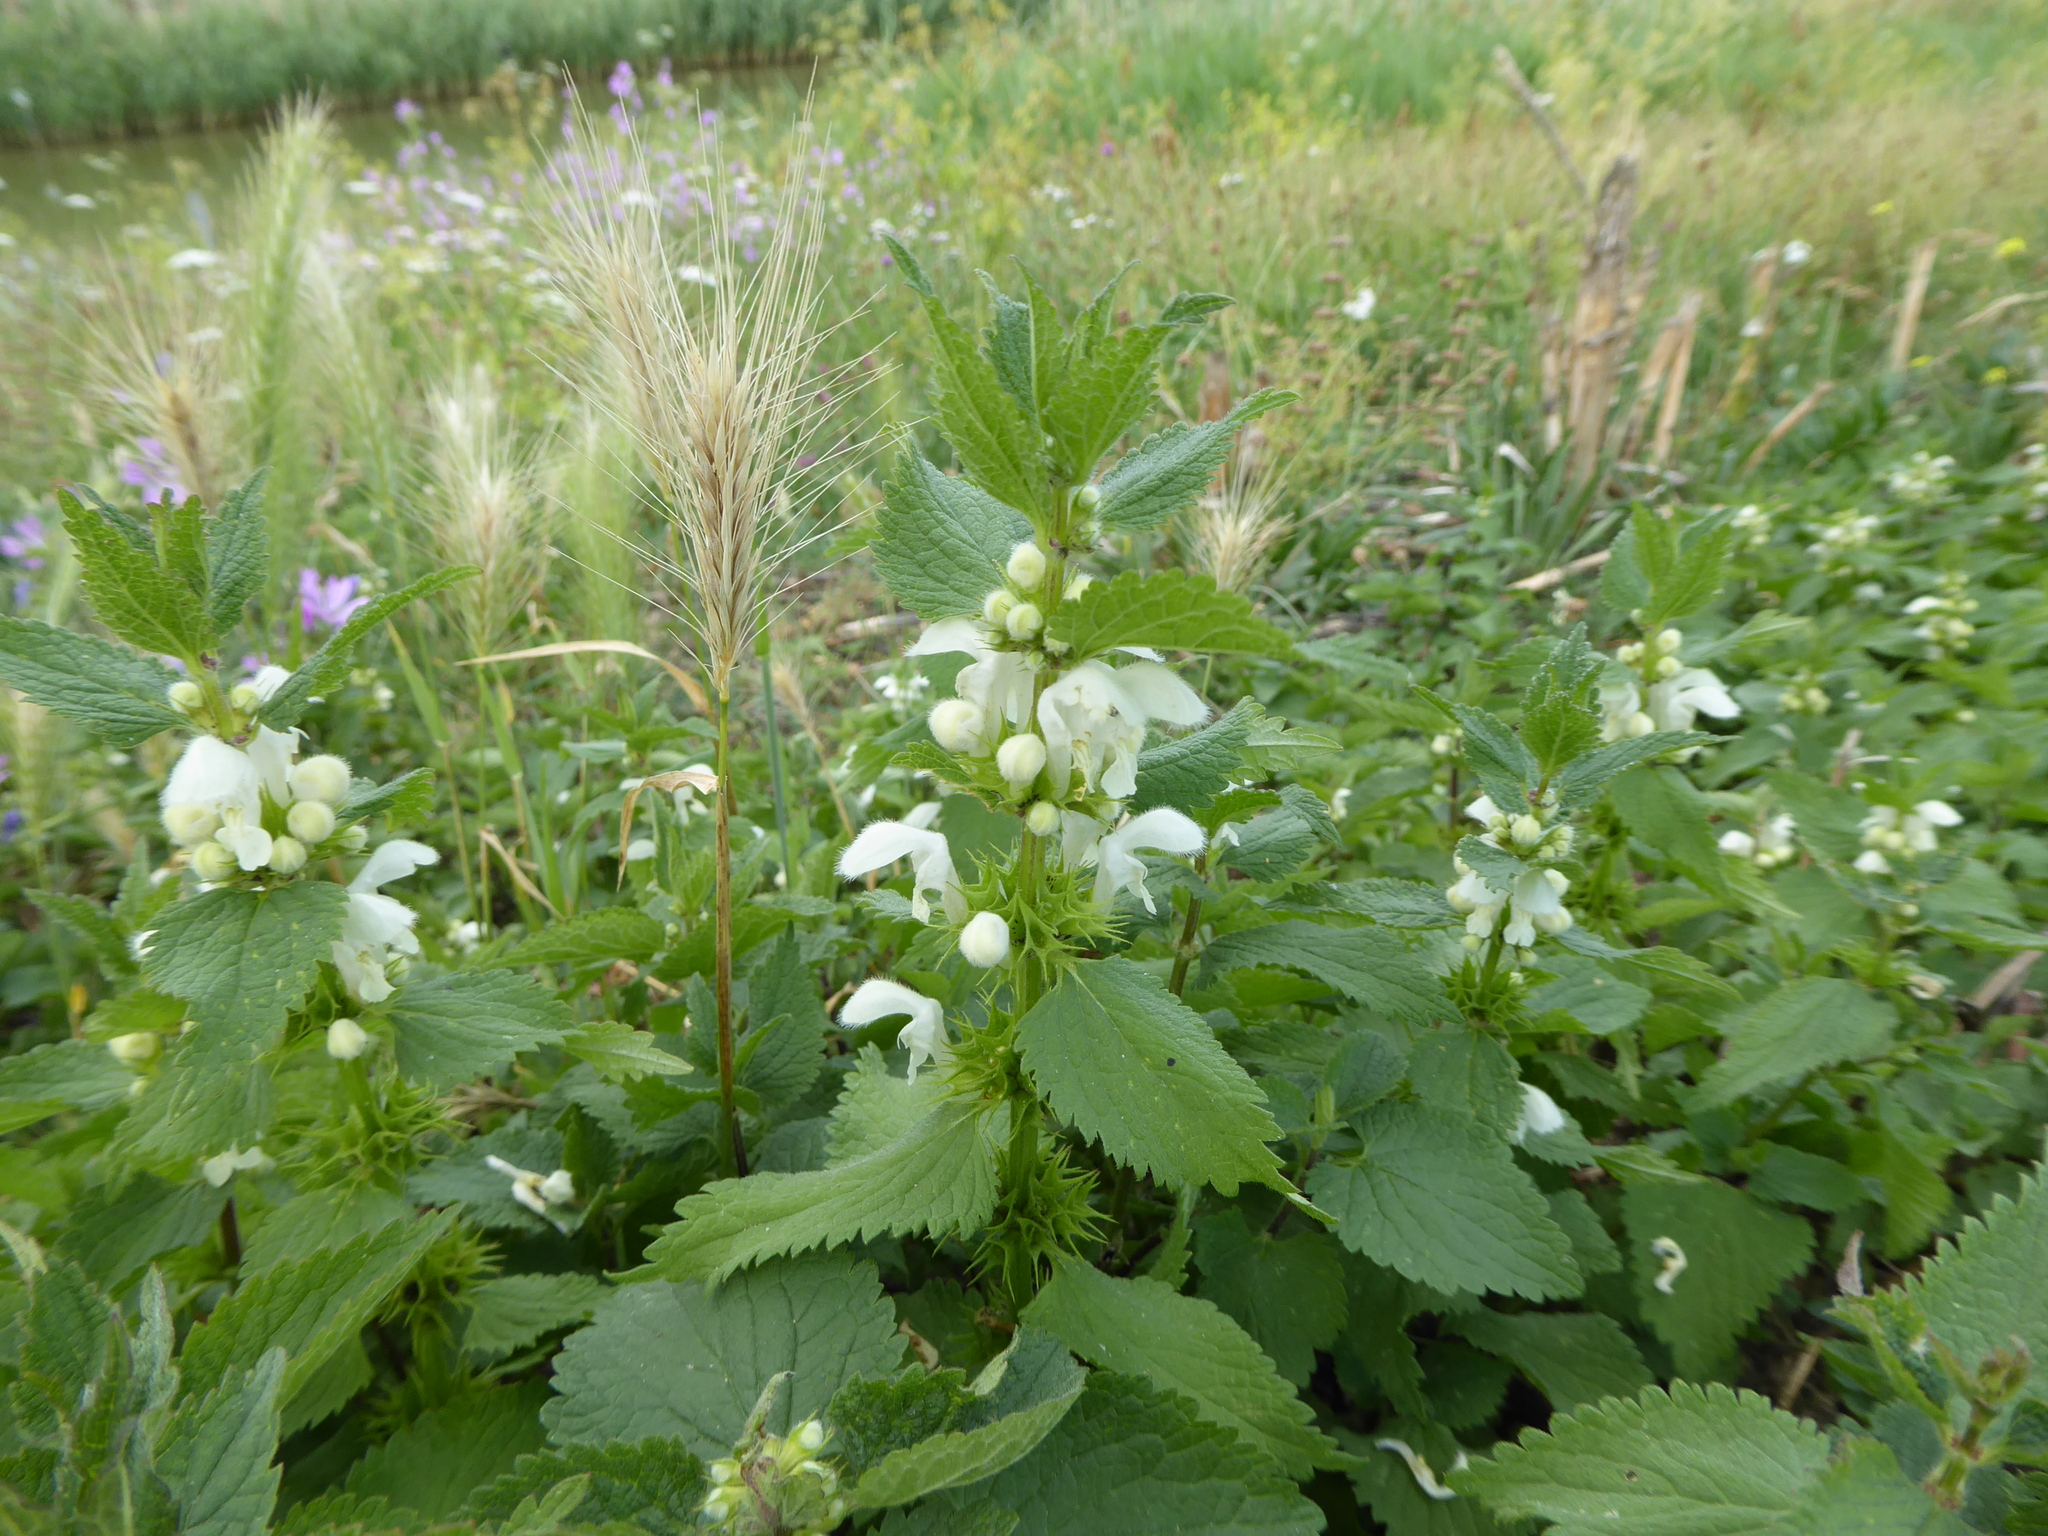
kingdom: Plantae
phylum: Tracheophyta
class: Magnoliopsida
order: Lamiales
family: Lamiaceae
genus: Lamium
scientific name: Lamium album
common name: White dead-nettle
